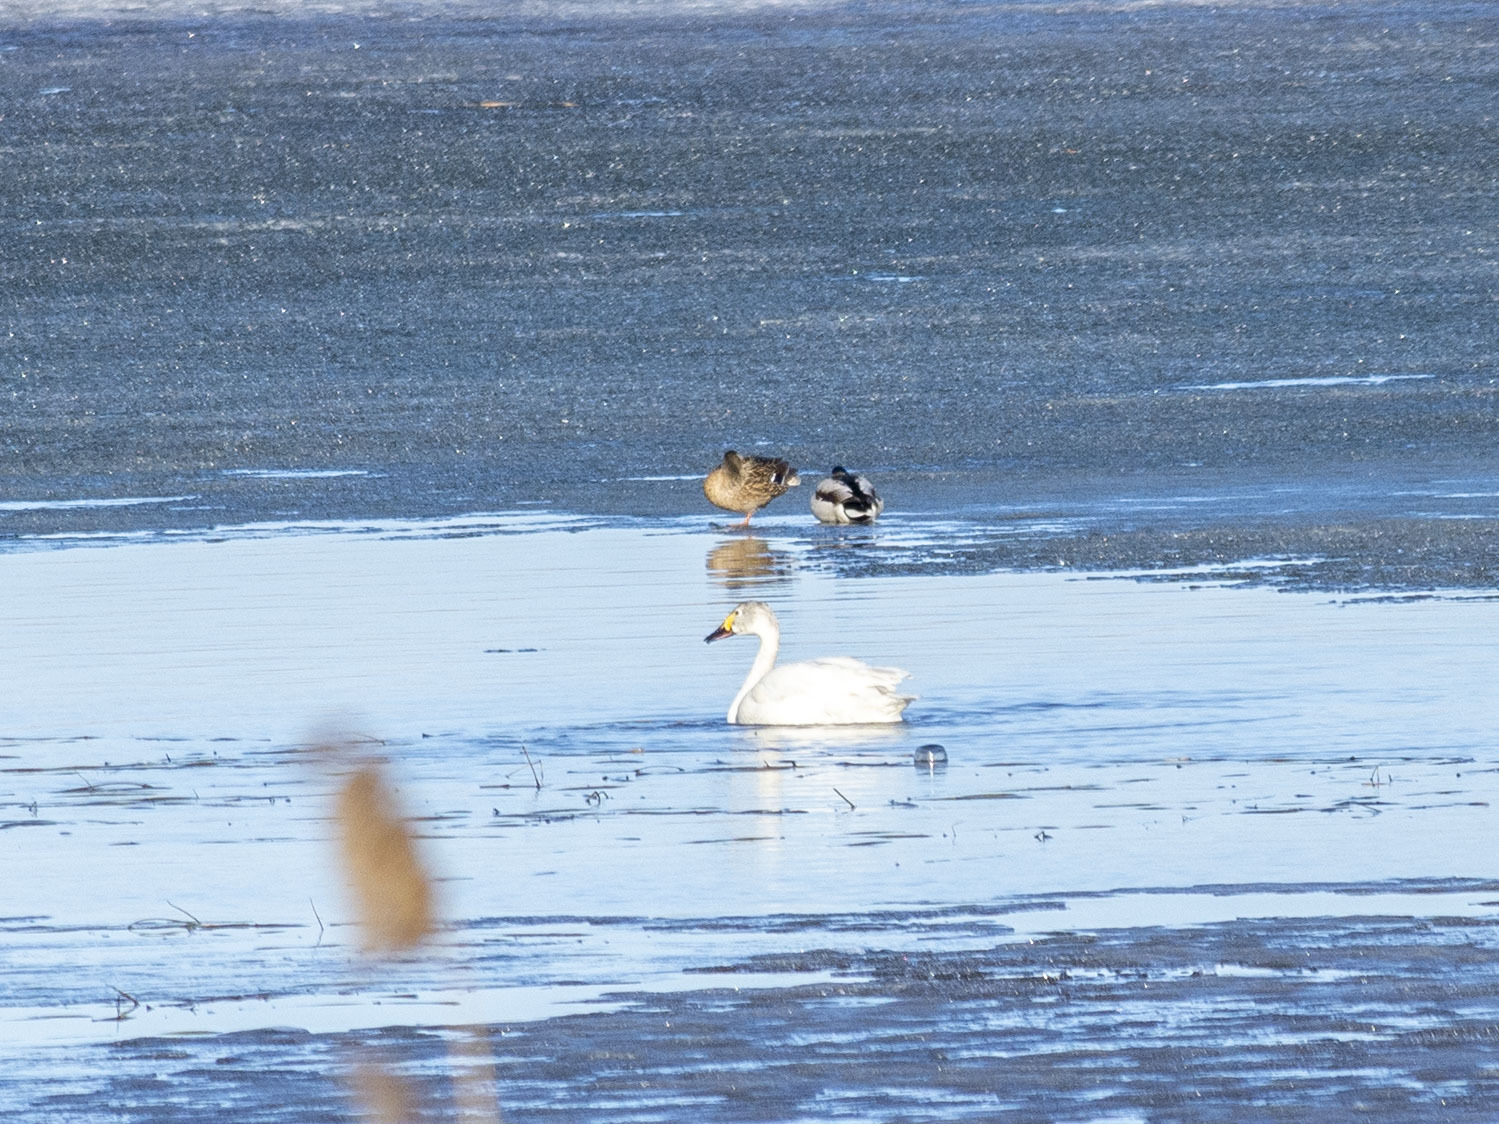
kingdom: Animalia
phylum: Chordata
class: Aves
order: Anseriformes
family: Anatidae
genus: Cygnus
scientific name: Cygnus columbianus
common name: Tundra swan
